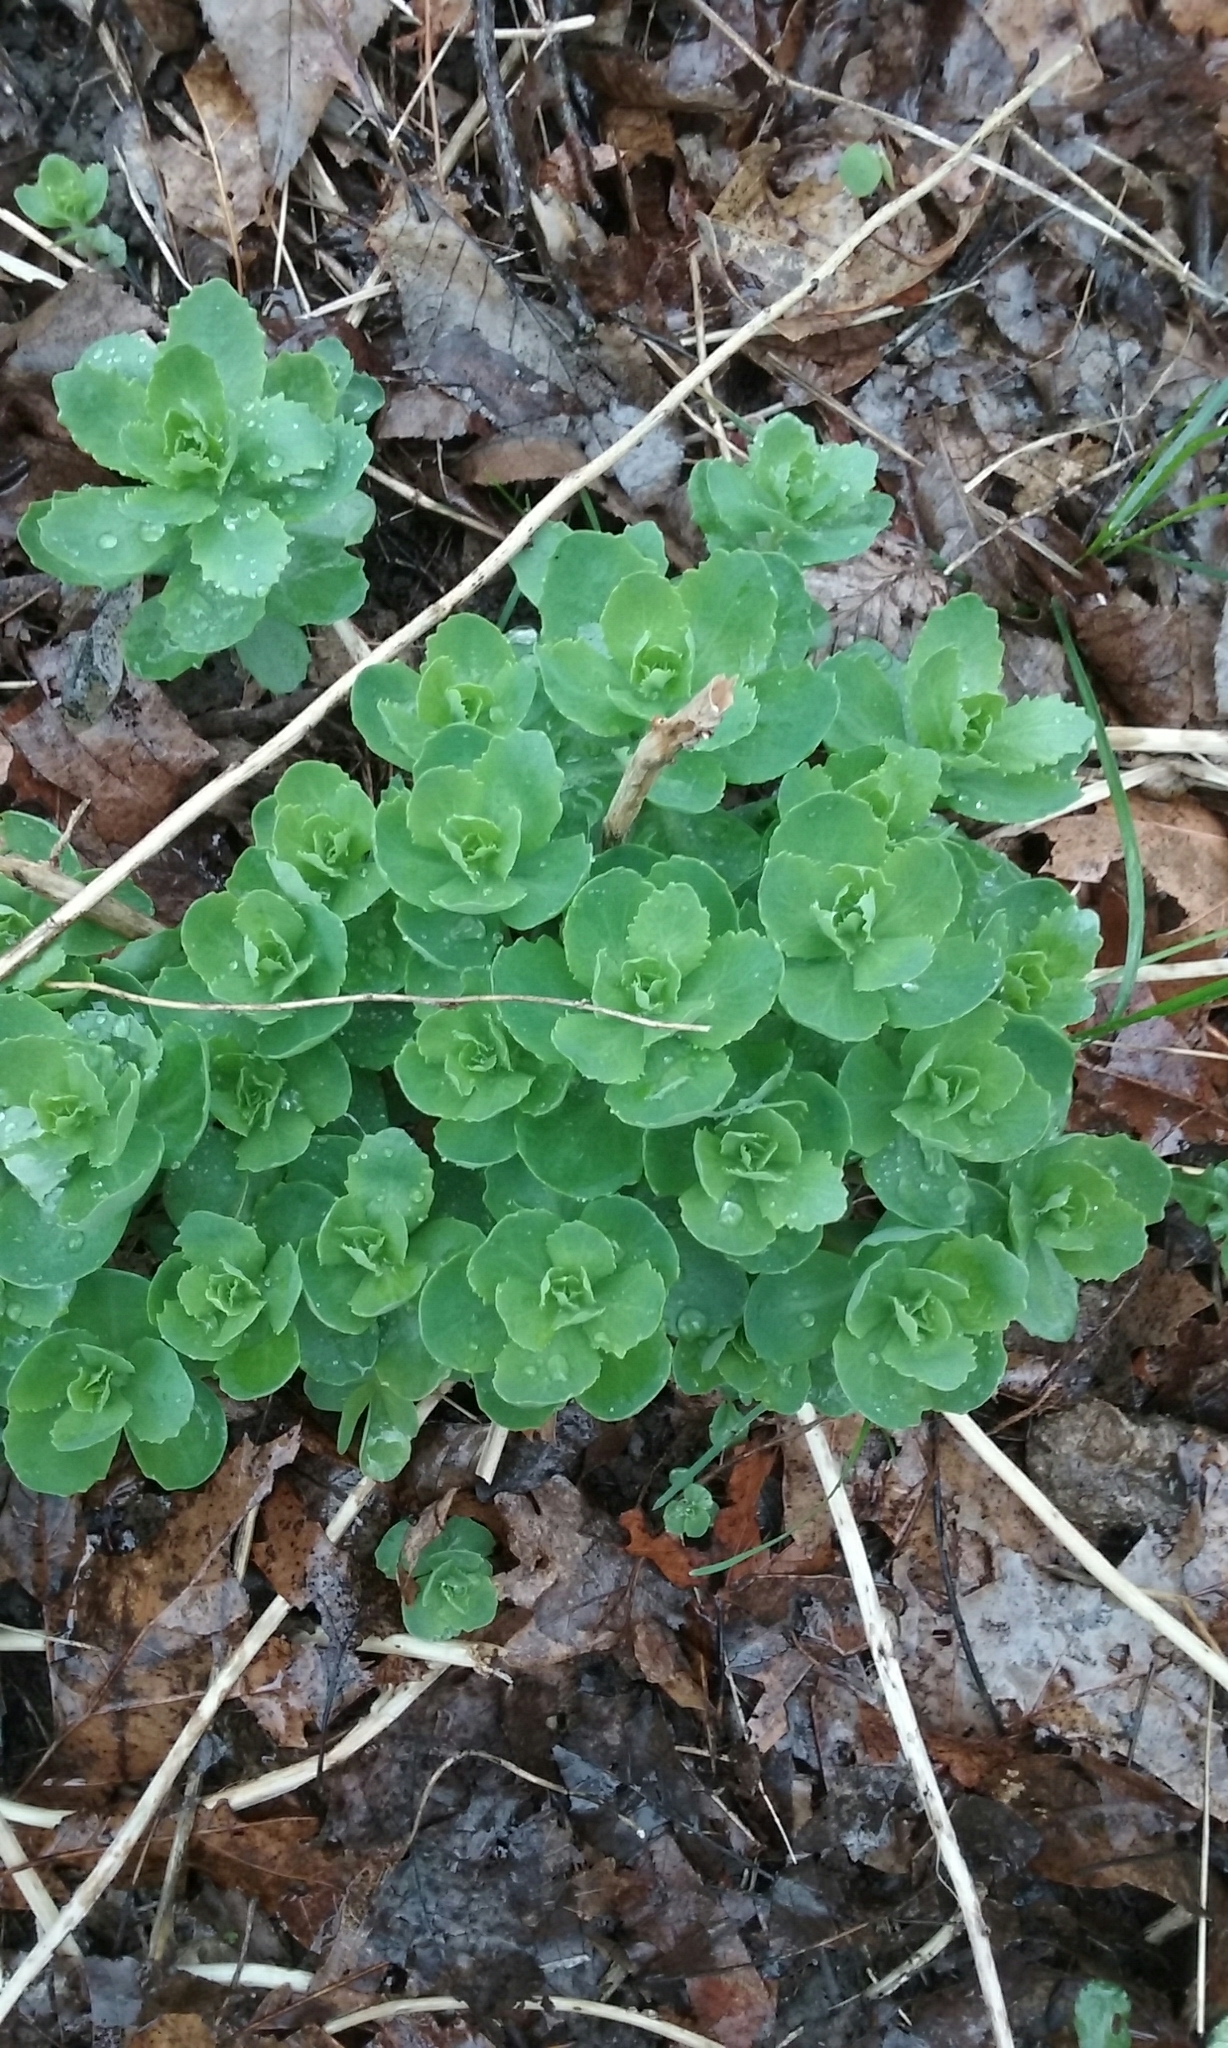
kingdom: Plantae
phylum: Tracheophyta
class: Magnoliopsida
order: Saxifragales
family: Crassulaceae
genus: Hylotelephium
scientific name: Hylotelephium telephium
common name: Live-forever
